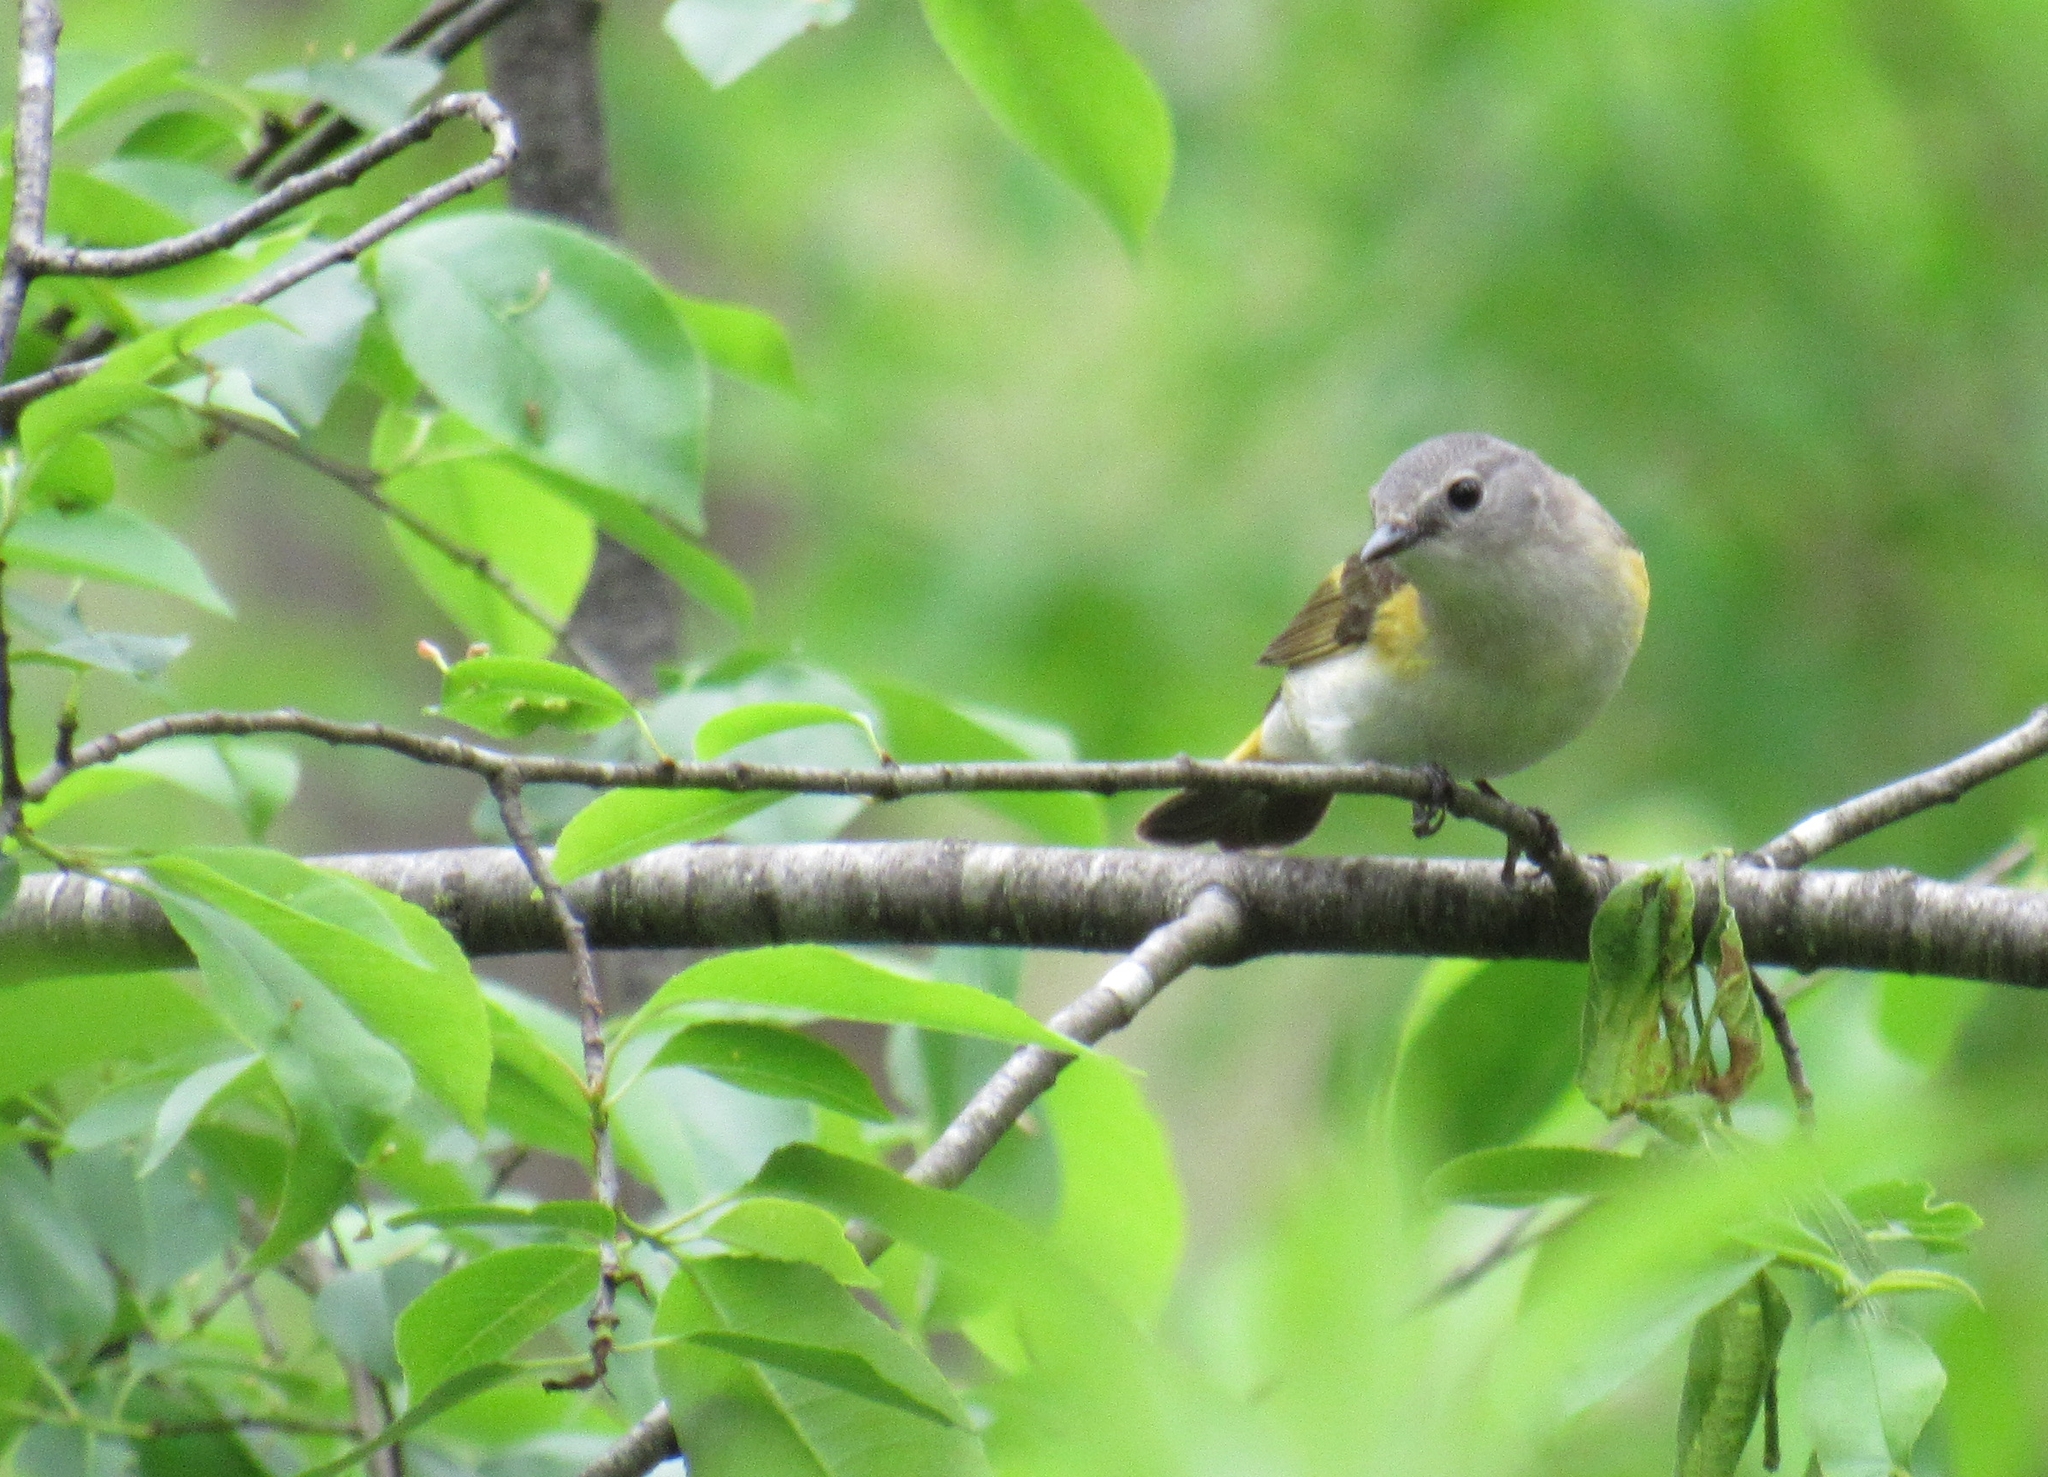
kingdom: Animalia
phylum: Chordata
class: Aves
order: Passeriformes
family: Parulidae
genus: Setophaga
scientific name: Setophaga ruticilla
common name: American redstart
